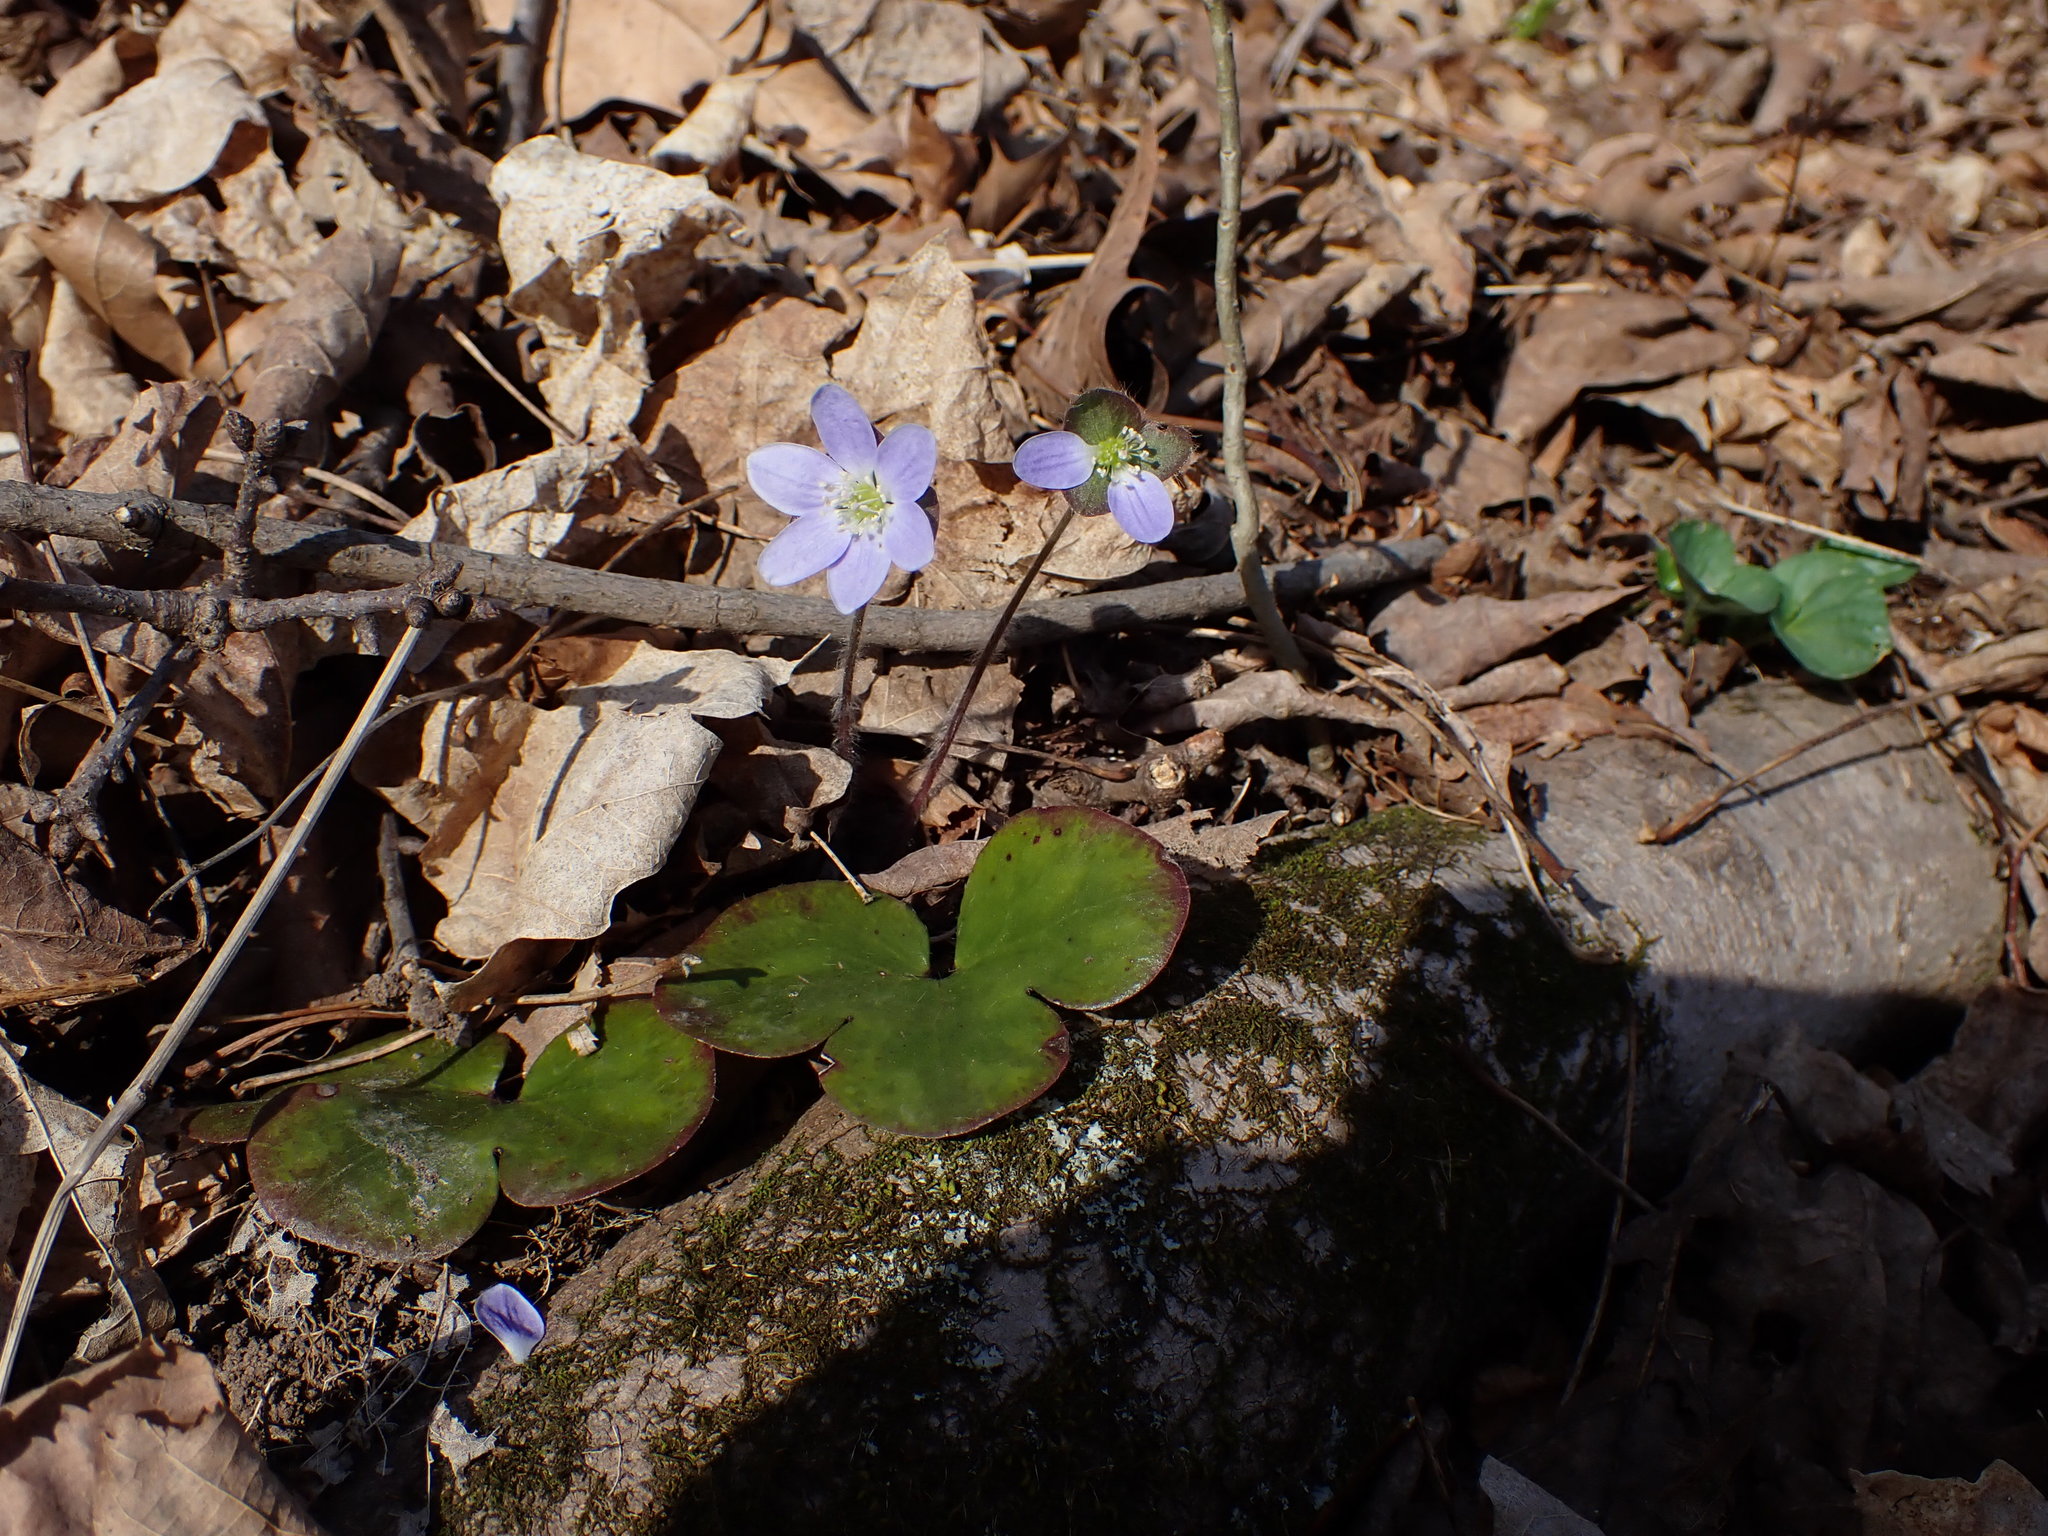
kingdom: Plantae
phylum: Tracheophyta
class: Magnoliopsida
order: Ranunculales
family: Ranunculaceae
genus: Hepatica
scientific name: Hepatica americana
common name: American hepatica
